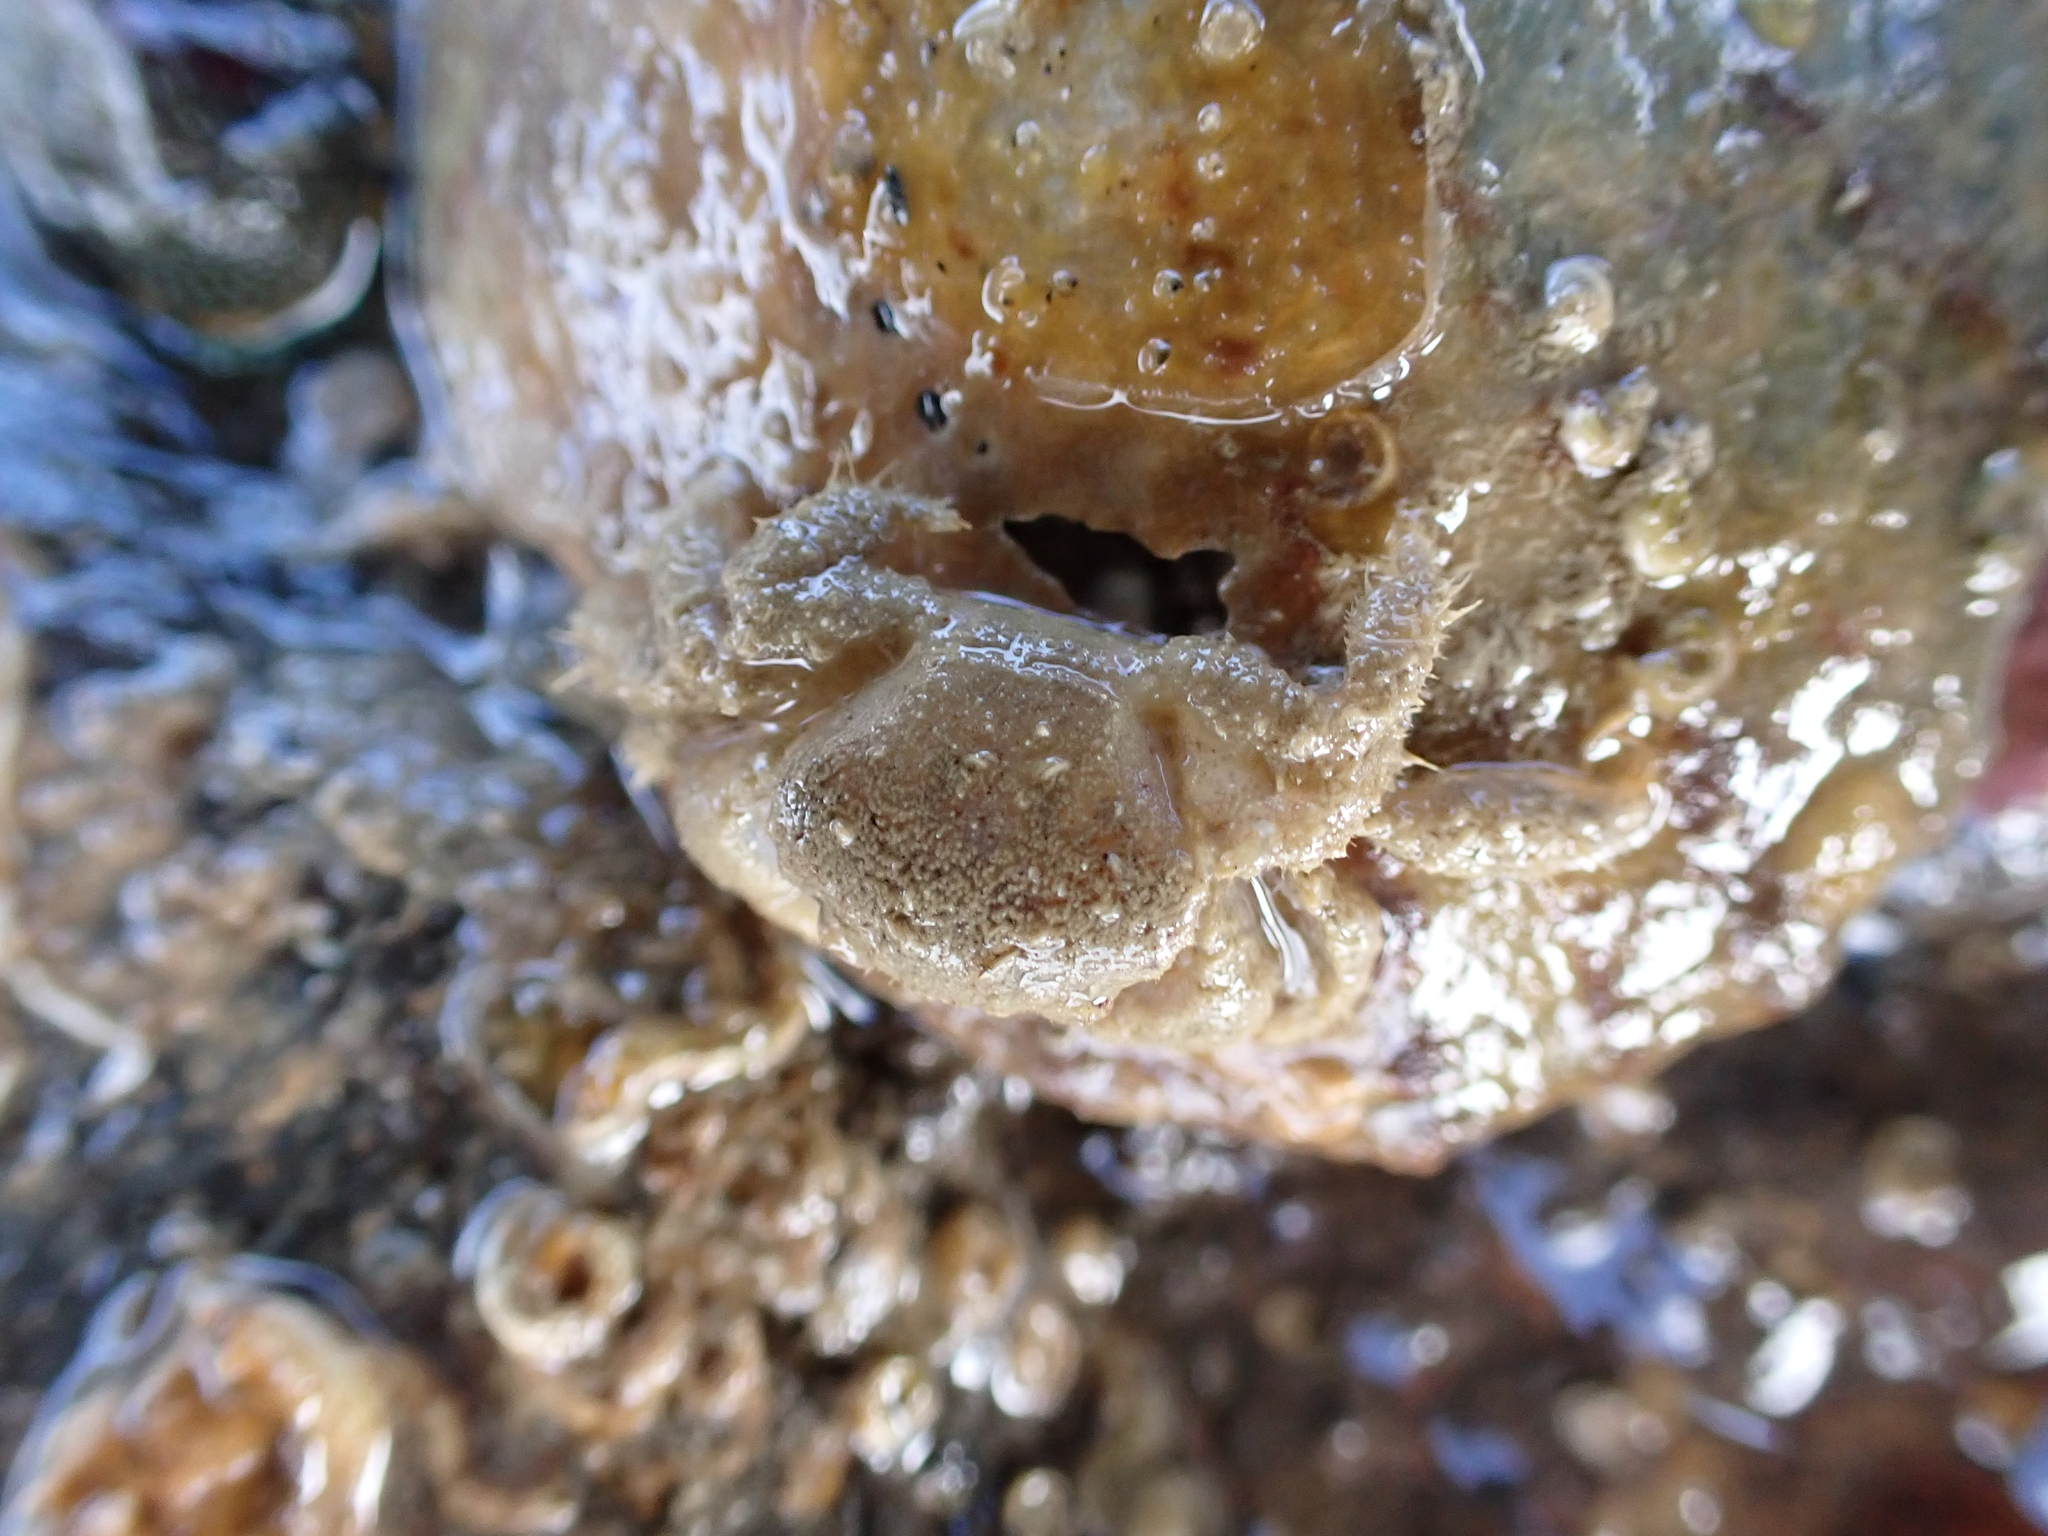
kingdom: Animalia
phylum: Arthropoda
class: Malacostraca
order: Decapoda
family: Pilumnidae
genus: Pilumnus
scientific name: Pilumnus lumpinus
